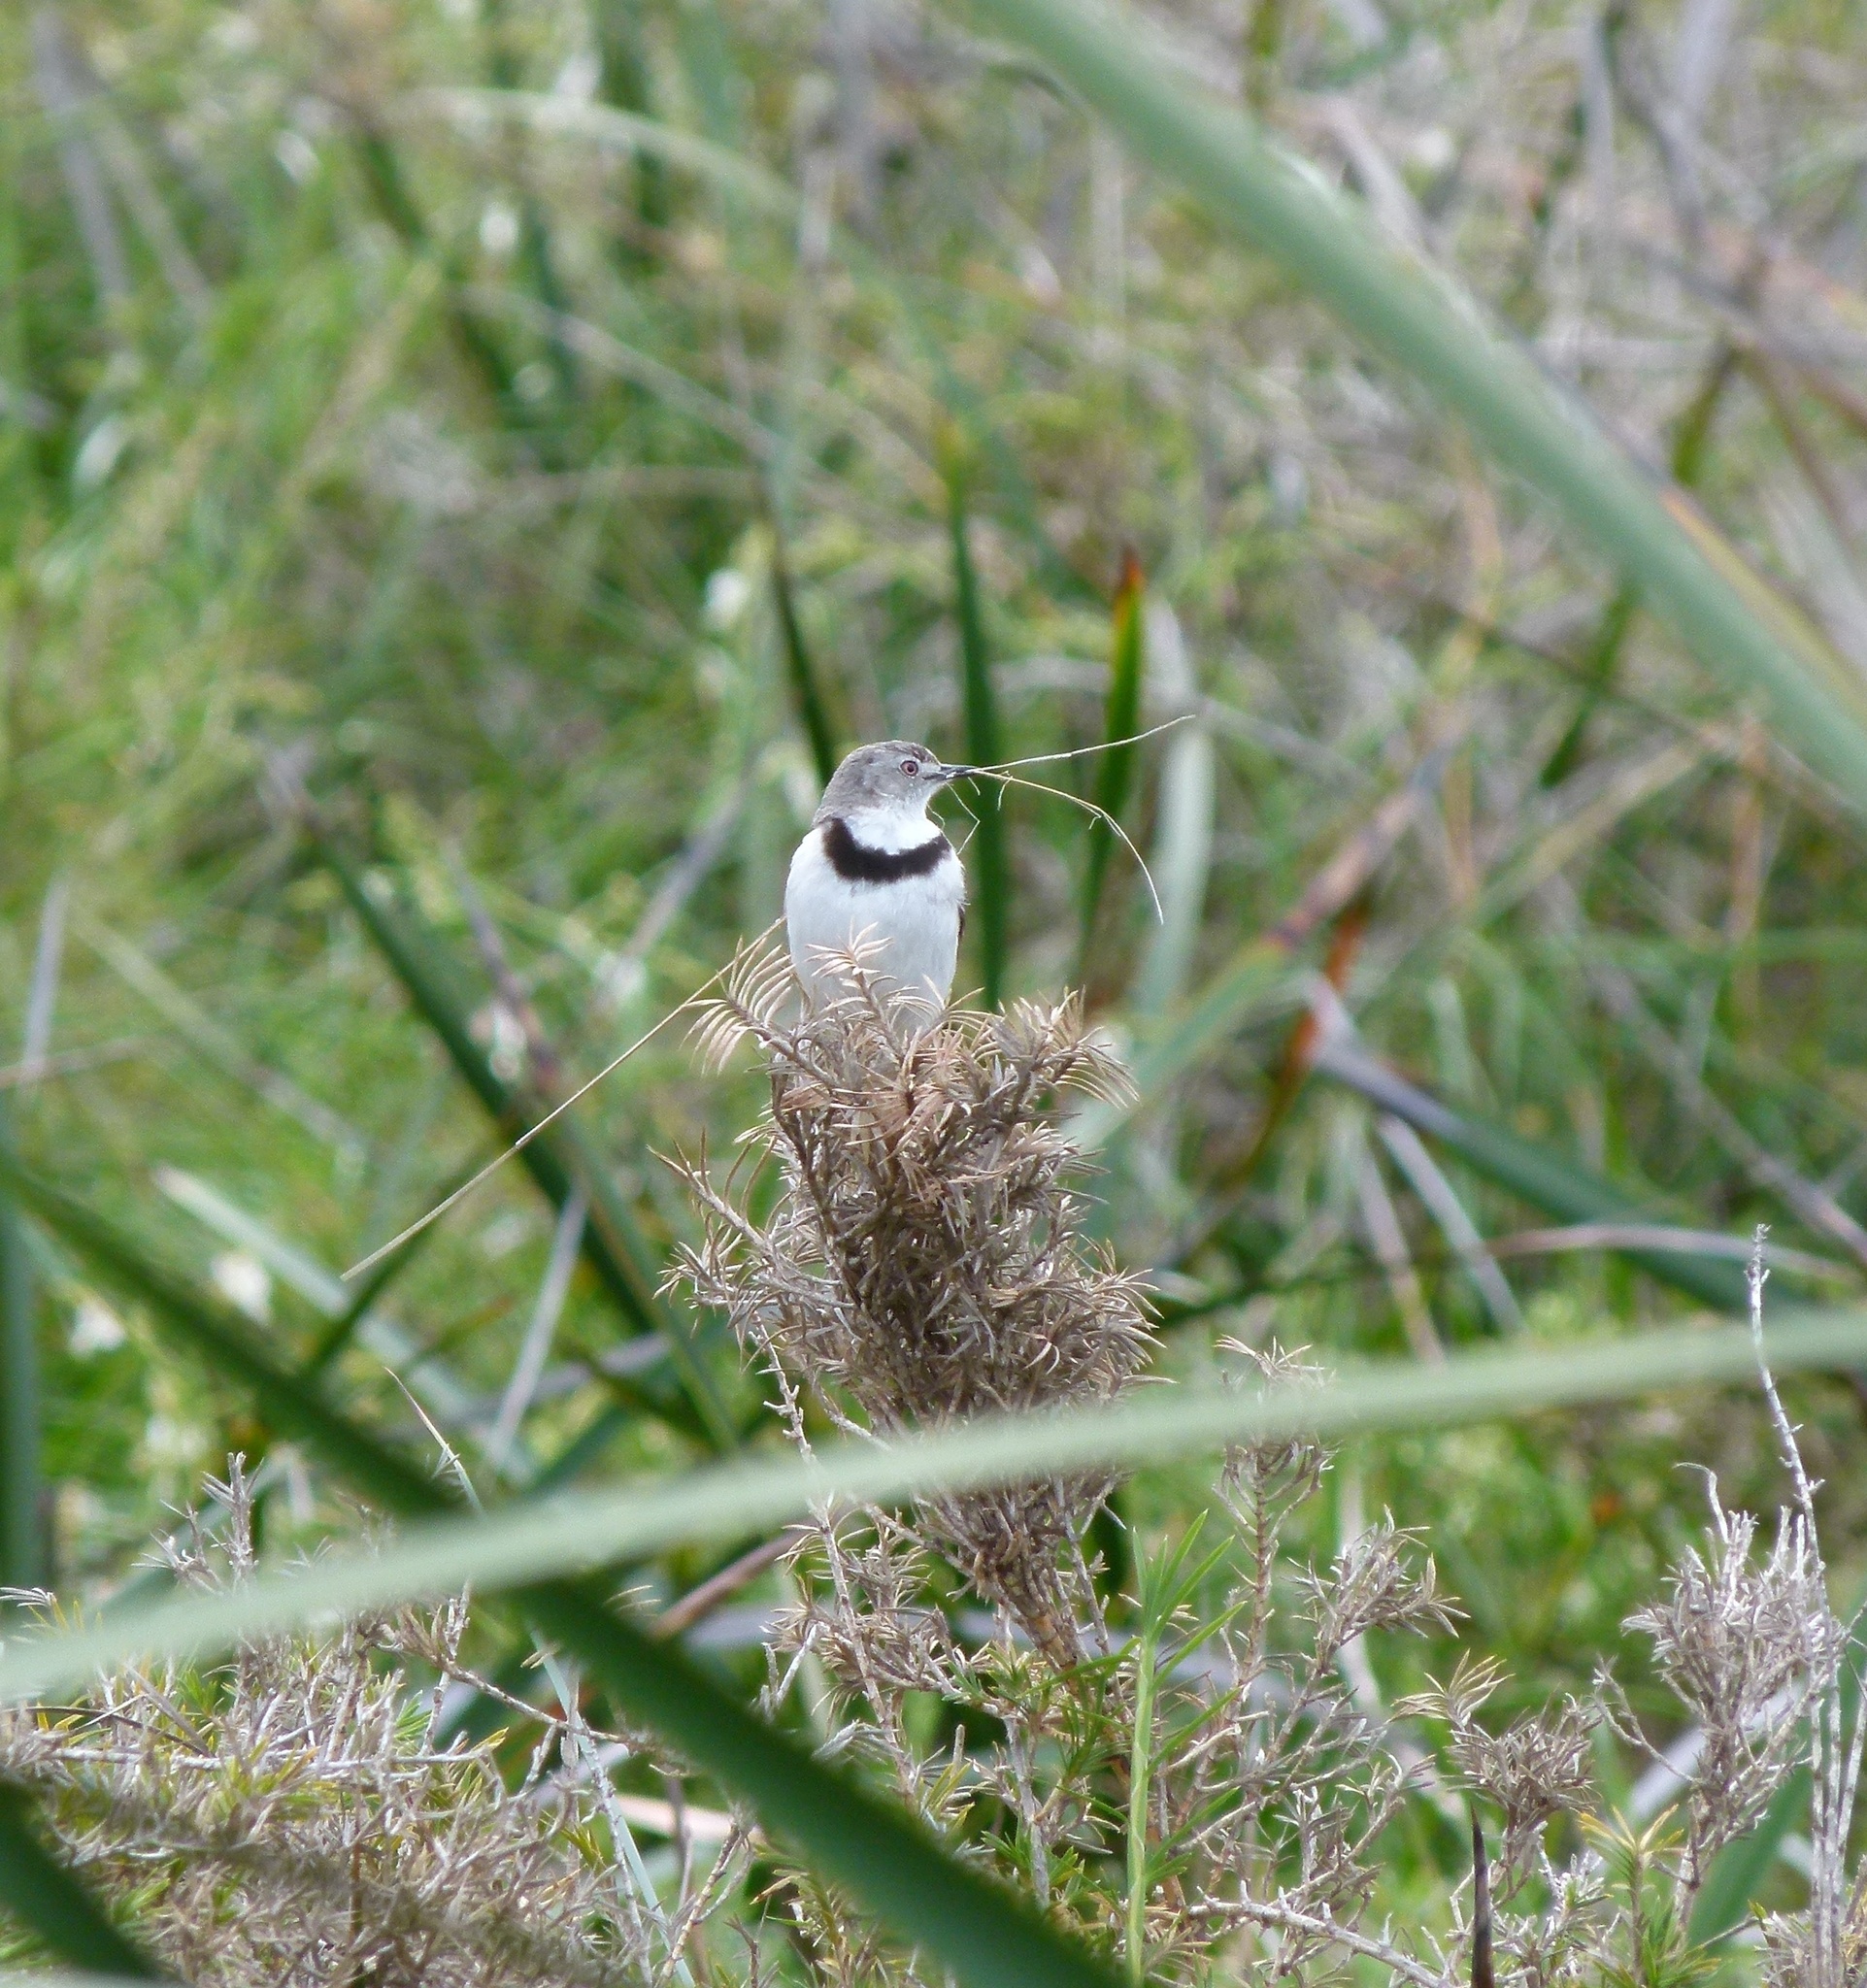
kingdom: Animalia
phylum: Chordata
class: Aves
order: Passeriformes
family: Meliphagidae
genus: Epthianura
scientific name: Epthianura albifrons
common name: White-fronted chat
